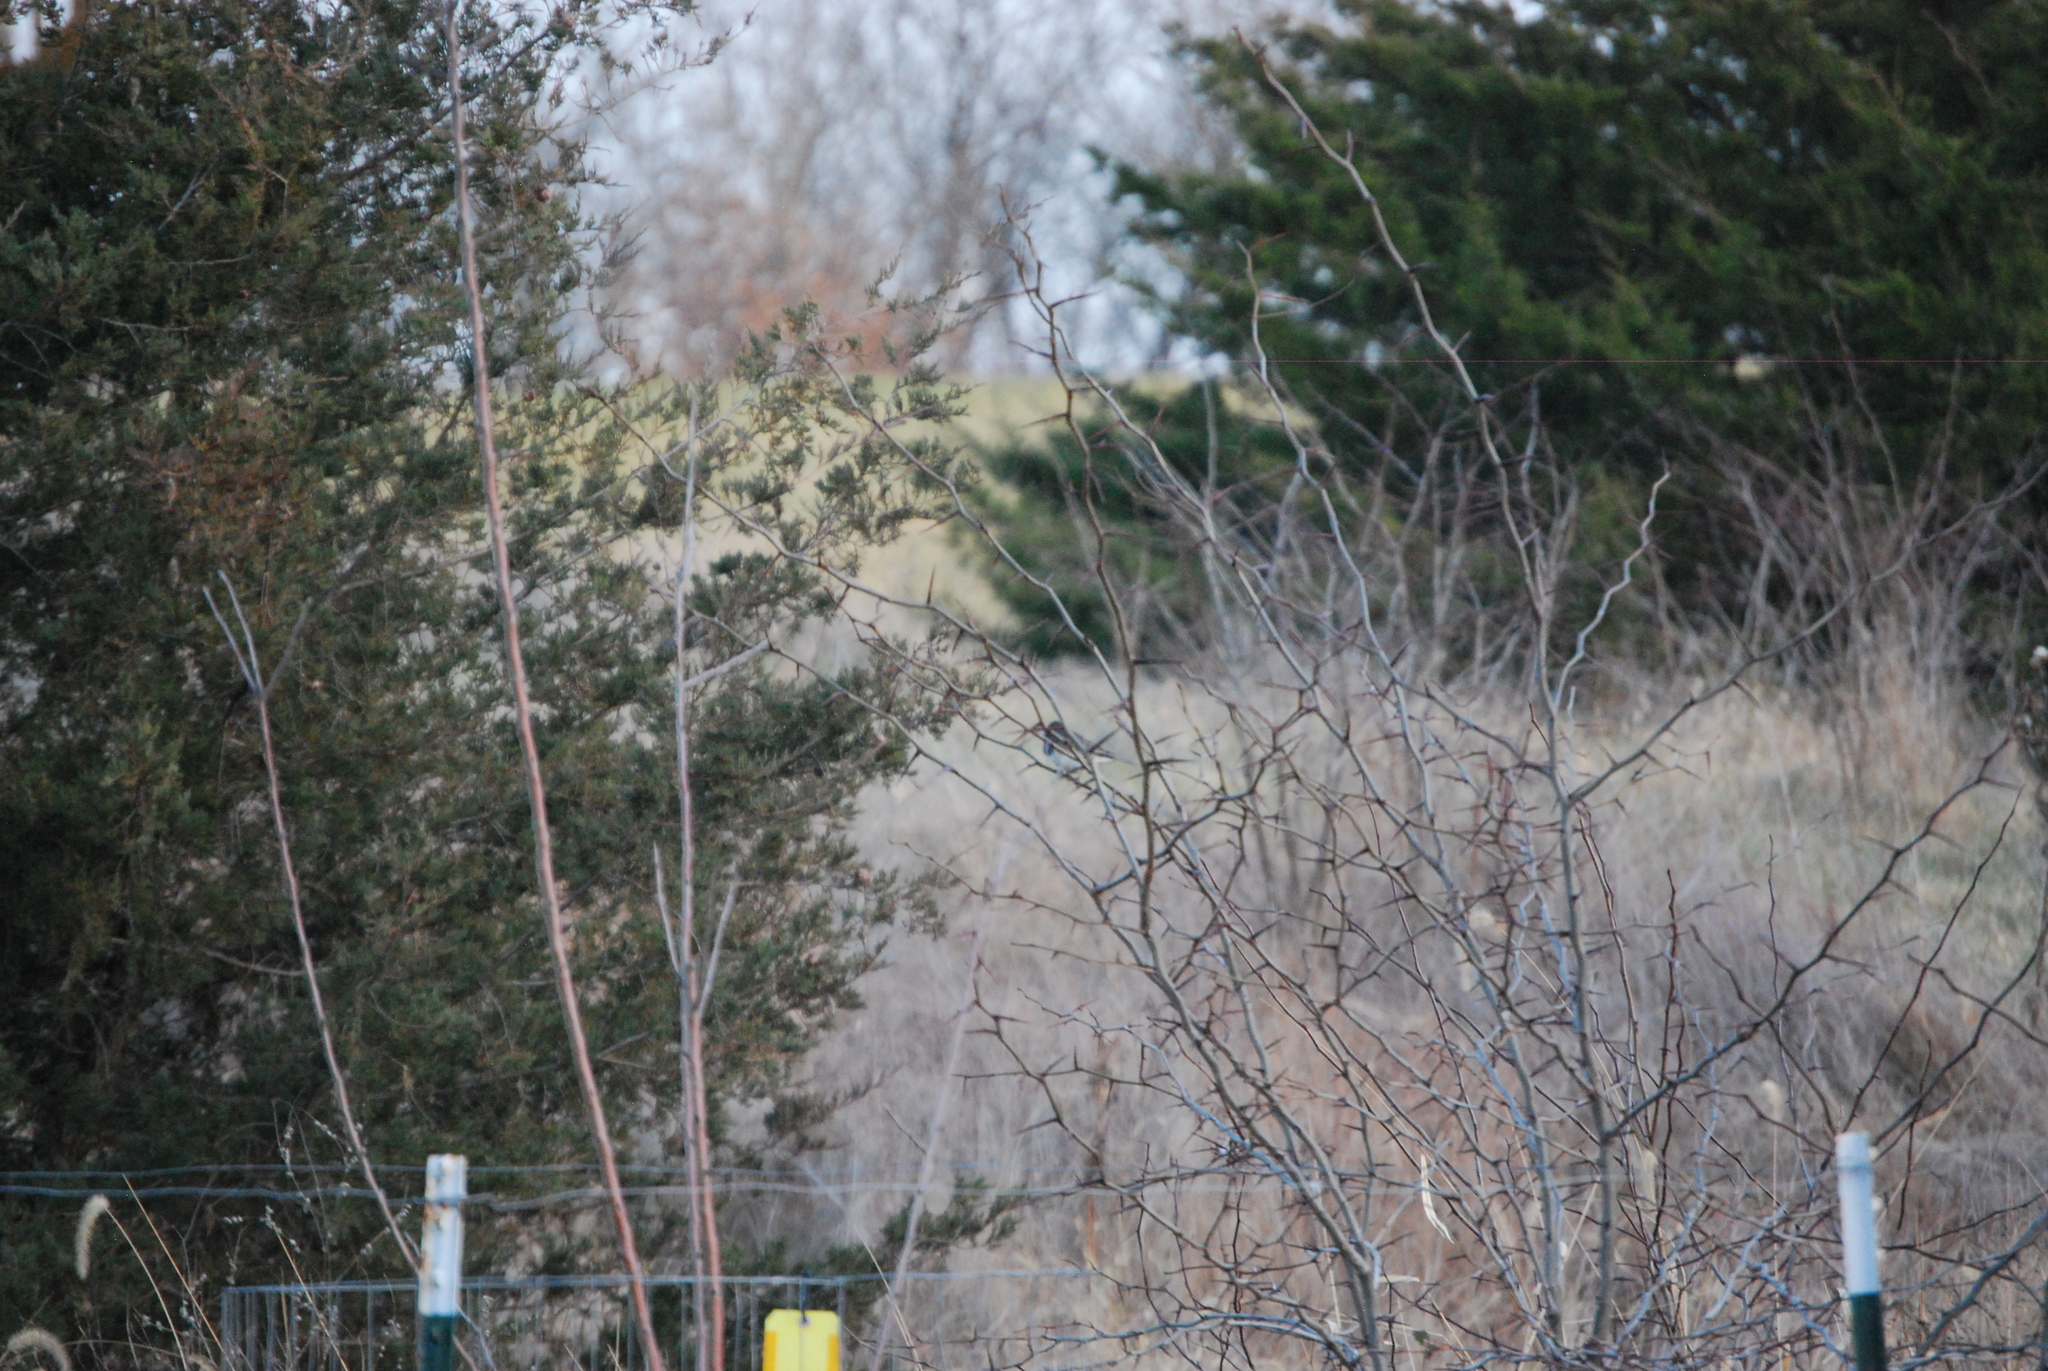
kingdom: Animalia
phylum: Chordata
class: Aves
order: Passeriformes
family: Passerellidae
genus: Junco
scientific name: Junco hyemalis
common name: Dark-eyed junco
